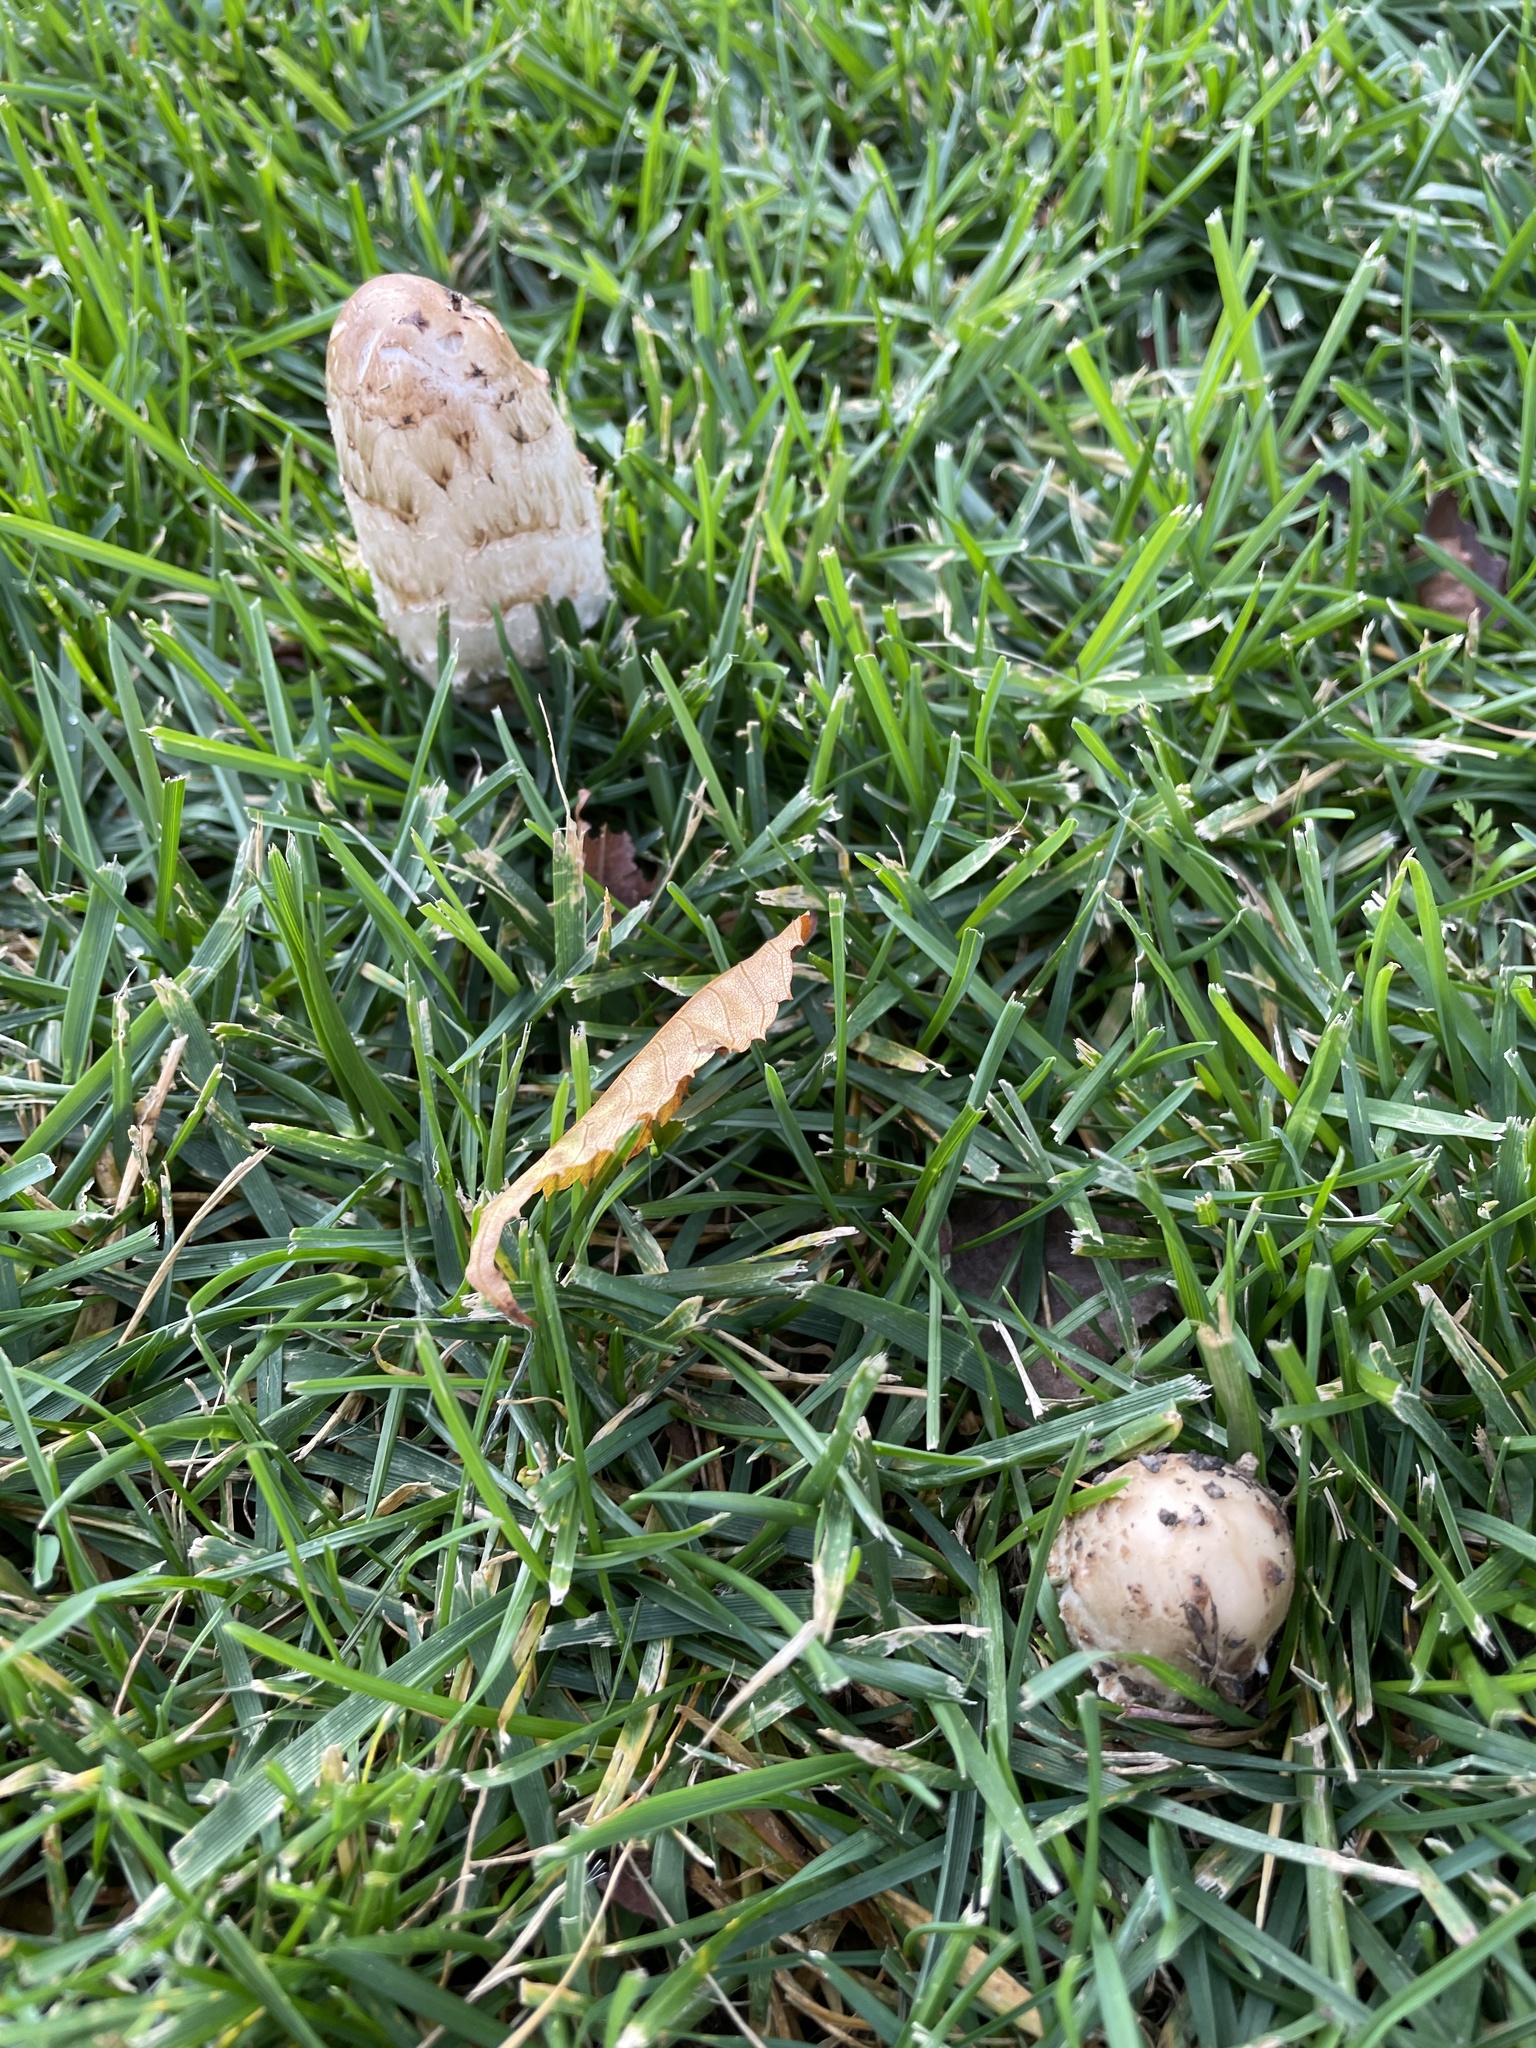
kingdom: Fungi
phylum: Basidiomycota
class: Agaricomycetes
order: Agaricales
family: Agaricaceae
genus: Coprinus
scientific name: Coprinus comatus
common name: Lawyer's wig
